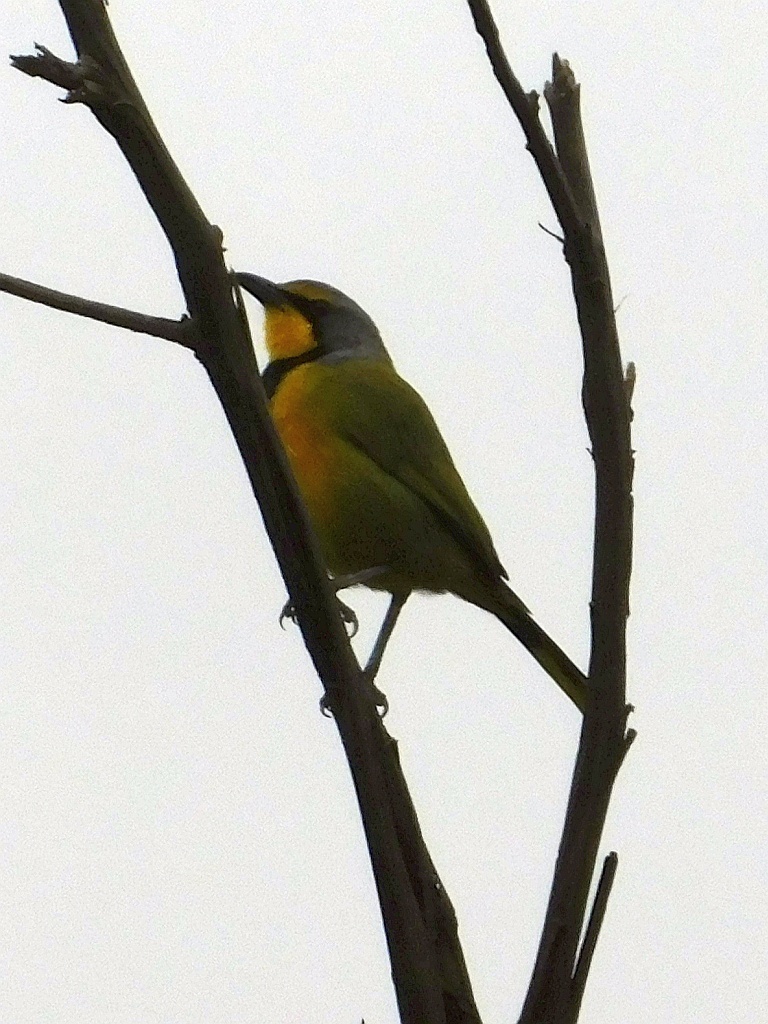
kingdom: Animalia
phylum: Chordata
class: Aves
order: Passeriformes
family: Malaconotidae
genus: Telophorus
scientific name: Telophorus zeylonus
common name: Bokmakierie
